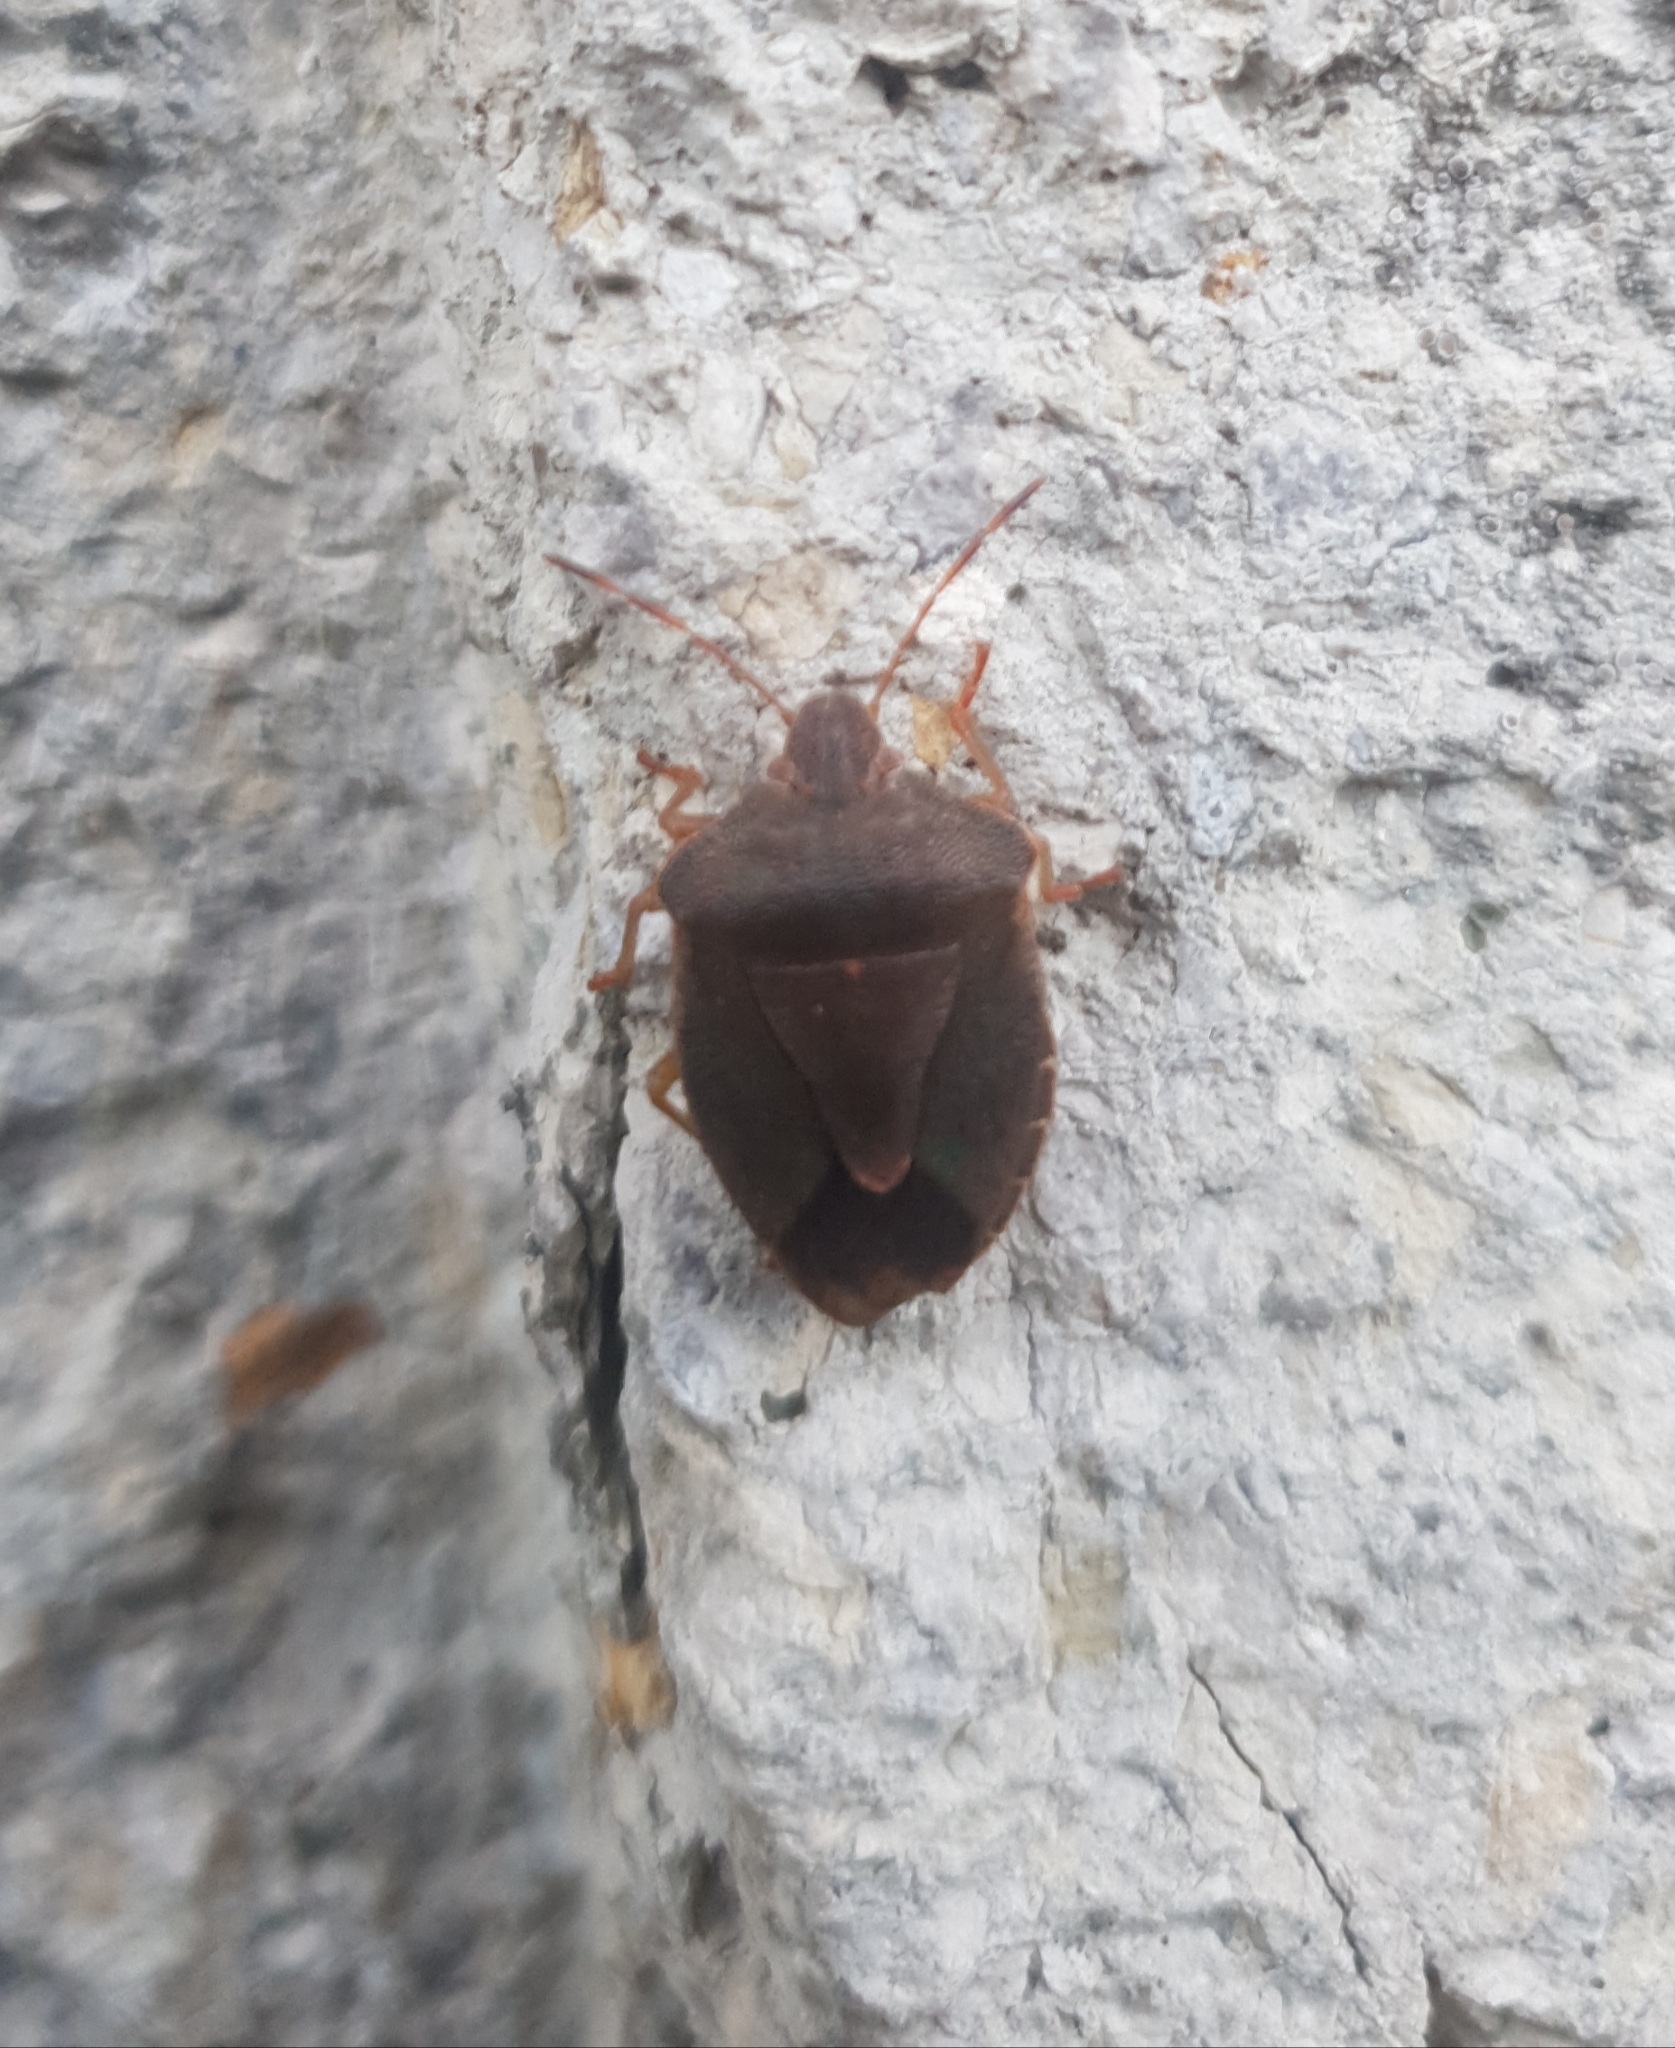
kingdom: Animalia
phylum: Arthropoda
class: Insecta
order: Hemiptera
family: Pentatomidae
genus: Palomena
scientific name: Palomena prasina
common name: Green shieldbug
